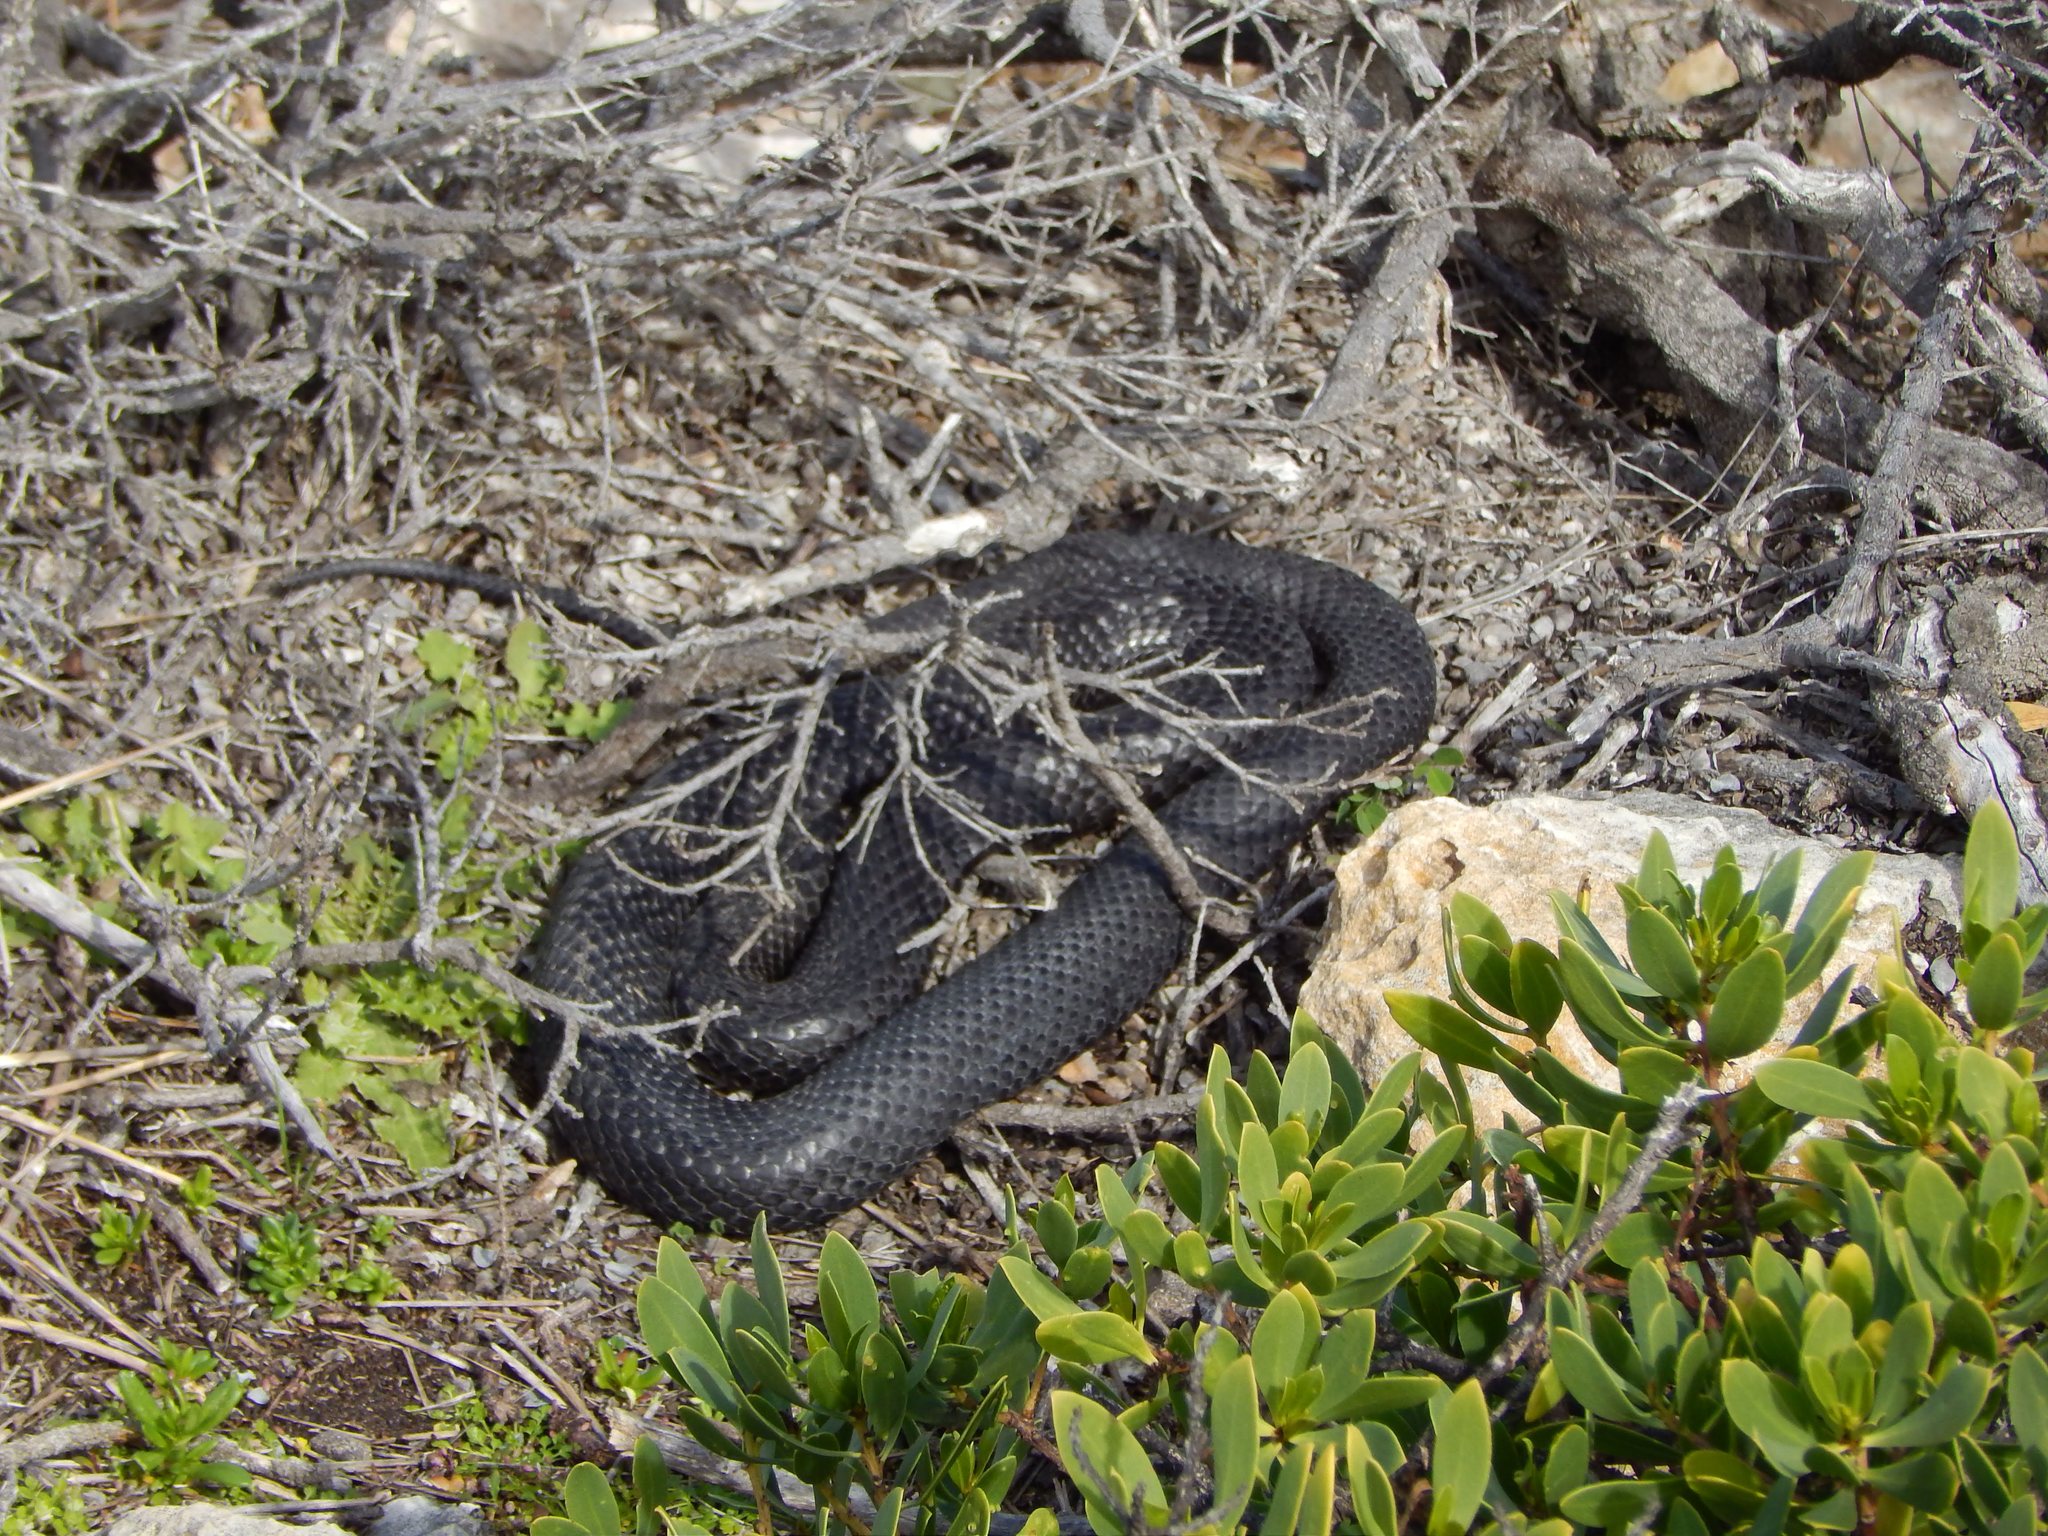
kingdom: Animalia
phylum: Chordata
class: Squamata
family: Elapidae
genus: Notechis
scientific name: Notechis scutatus
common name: Mainland tiger snake
